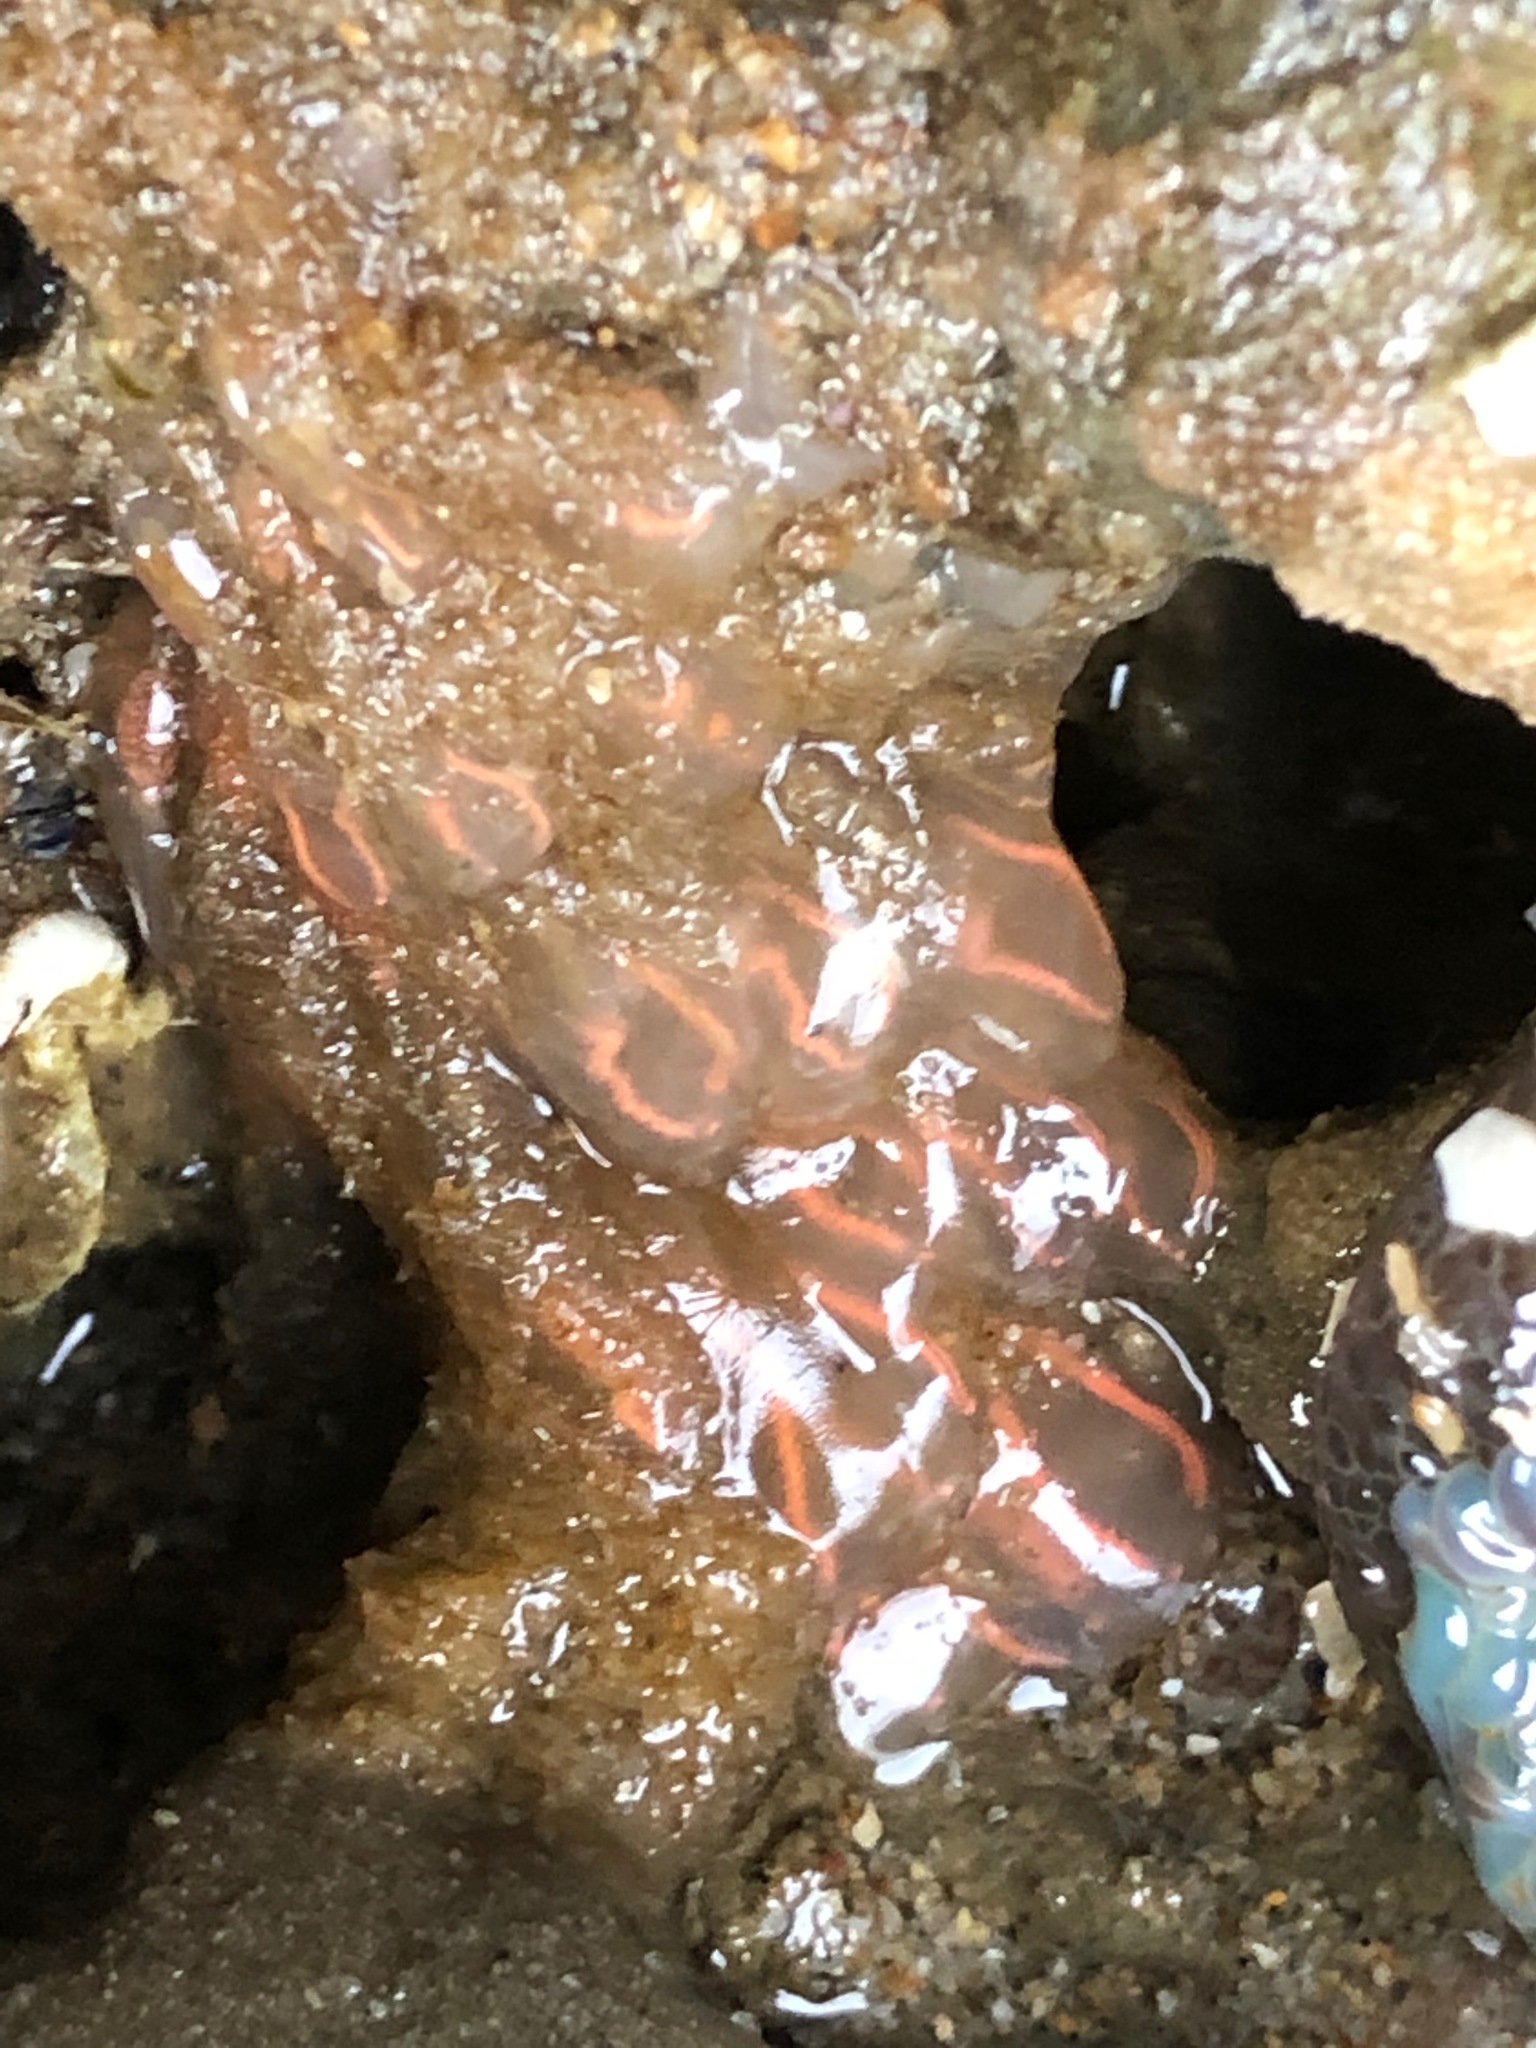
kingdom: Animalia
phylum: Chordata
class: Ascidiacea
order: Aplousobranchia
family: Clavelinidae
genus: Clavelina
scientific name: Clavelina huntsmani
